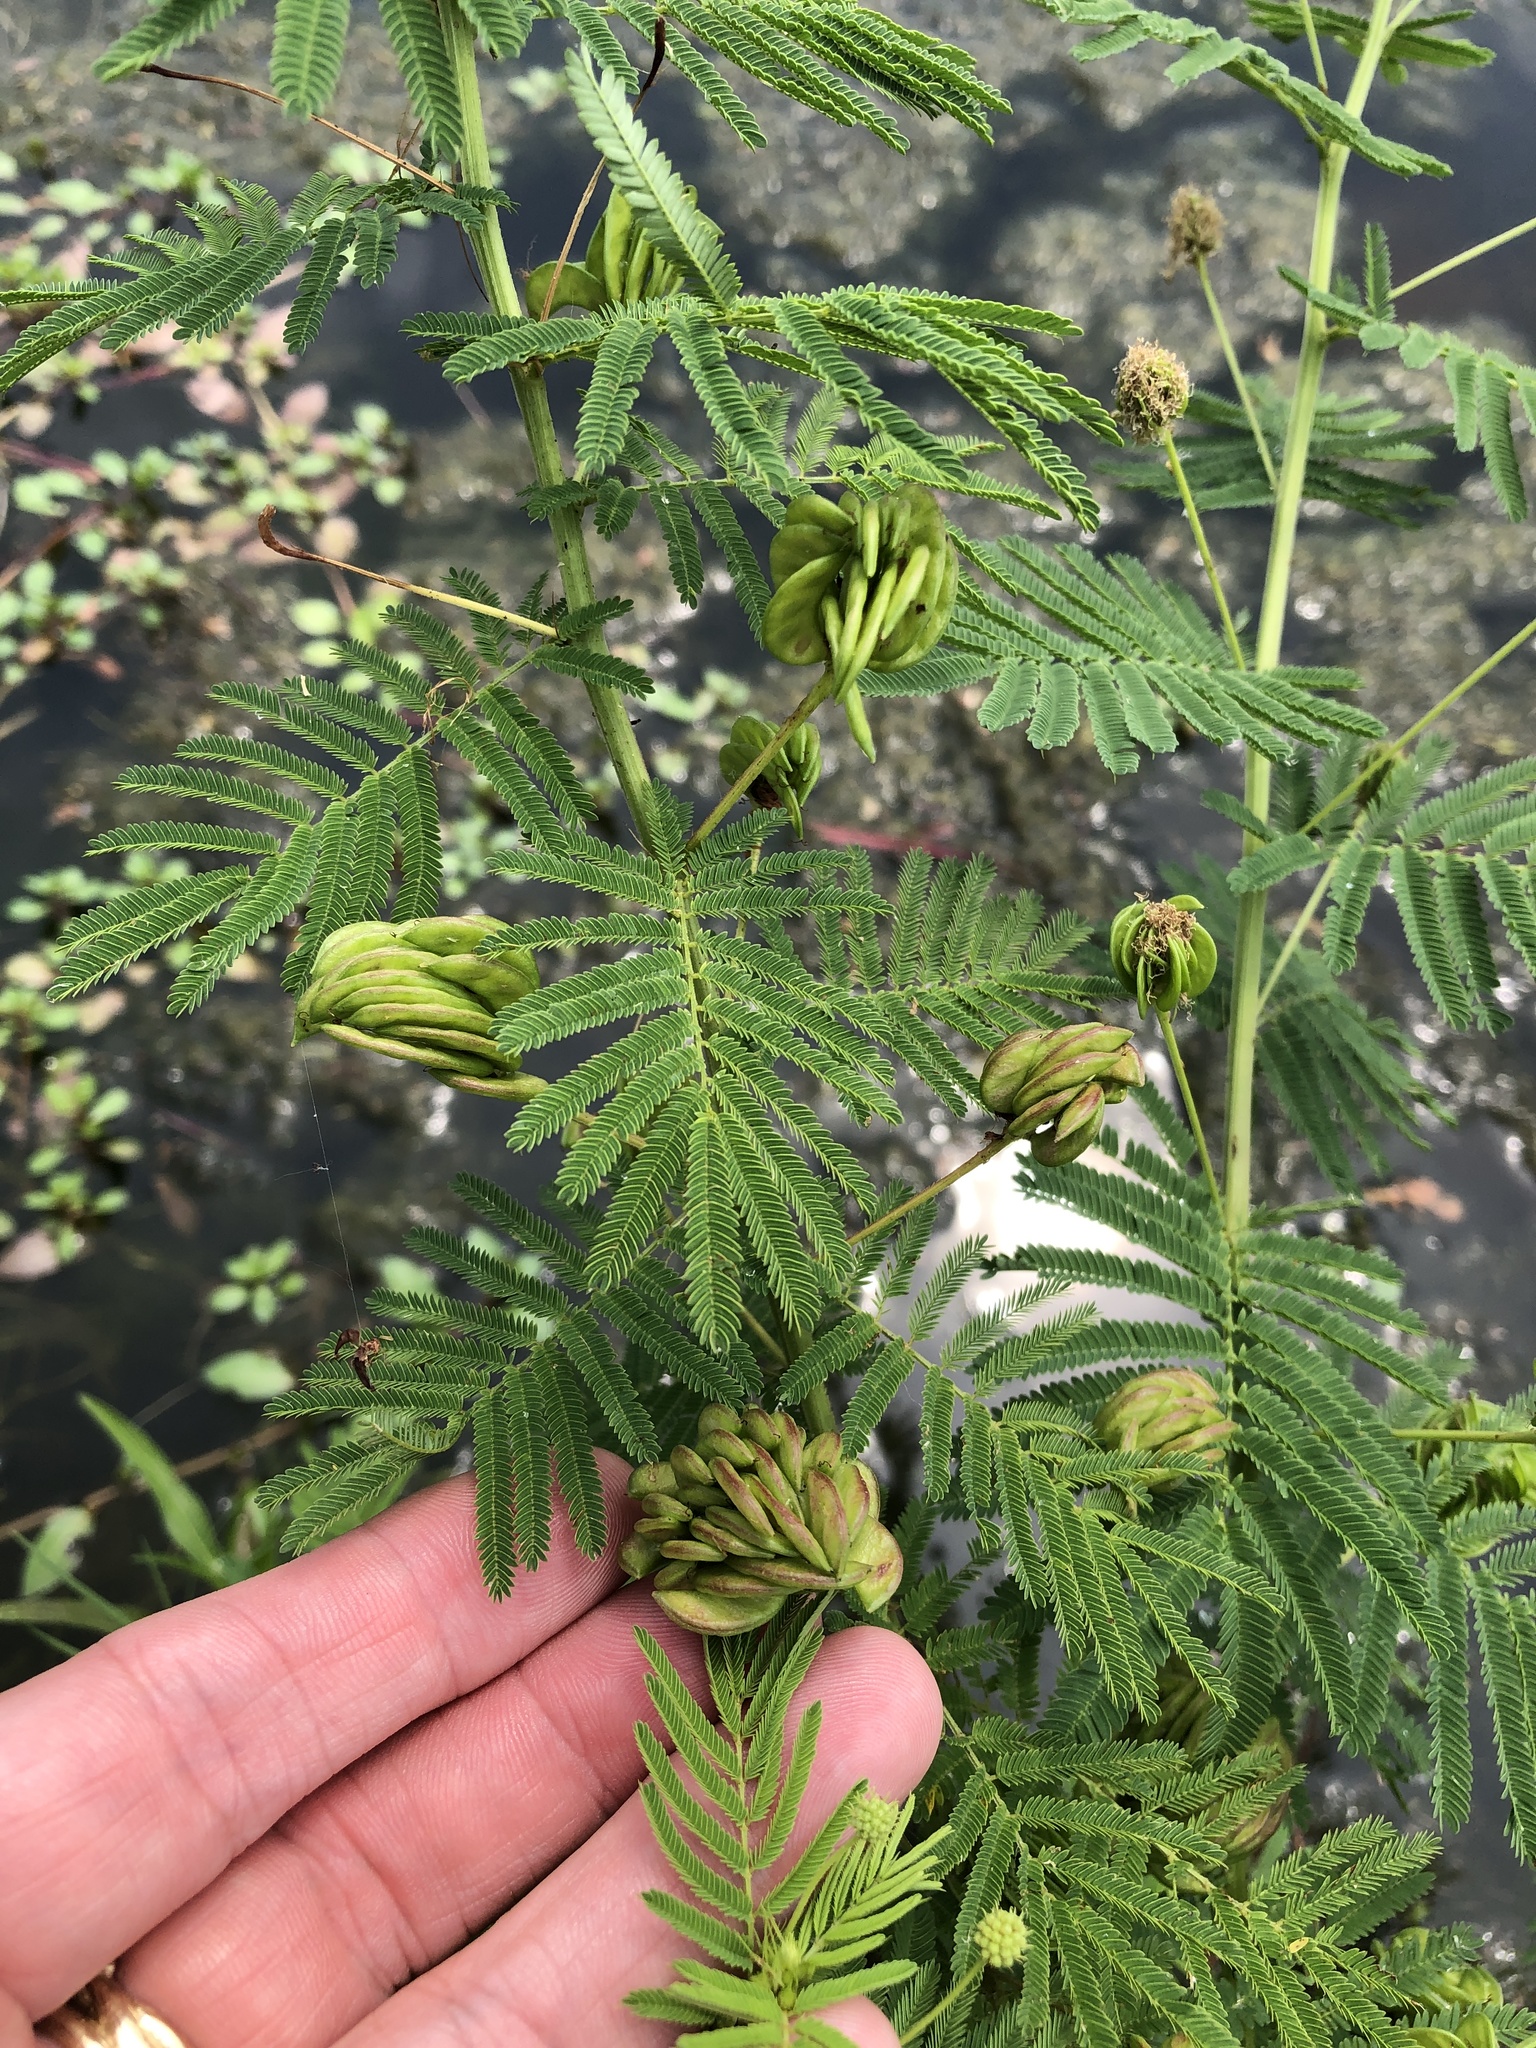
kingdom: Plantae
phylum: Tracheophyta
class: Magnoliopsida
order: Fabales
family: Fabaceae
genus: Desmanthus
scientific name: Desmanthus illinoensis
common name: Illinois bundle-flower
